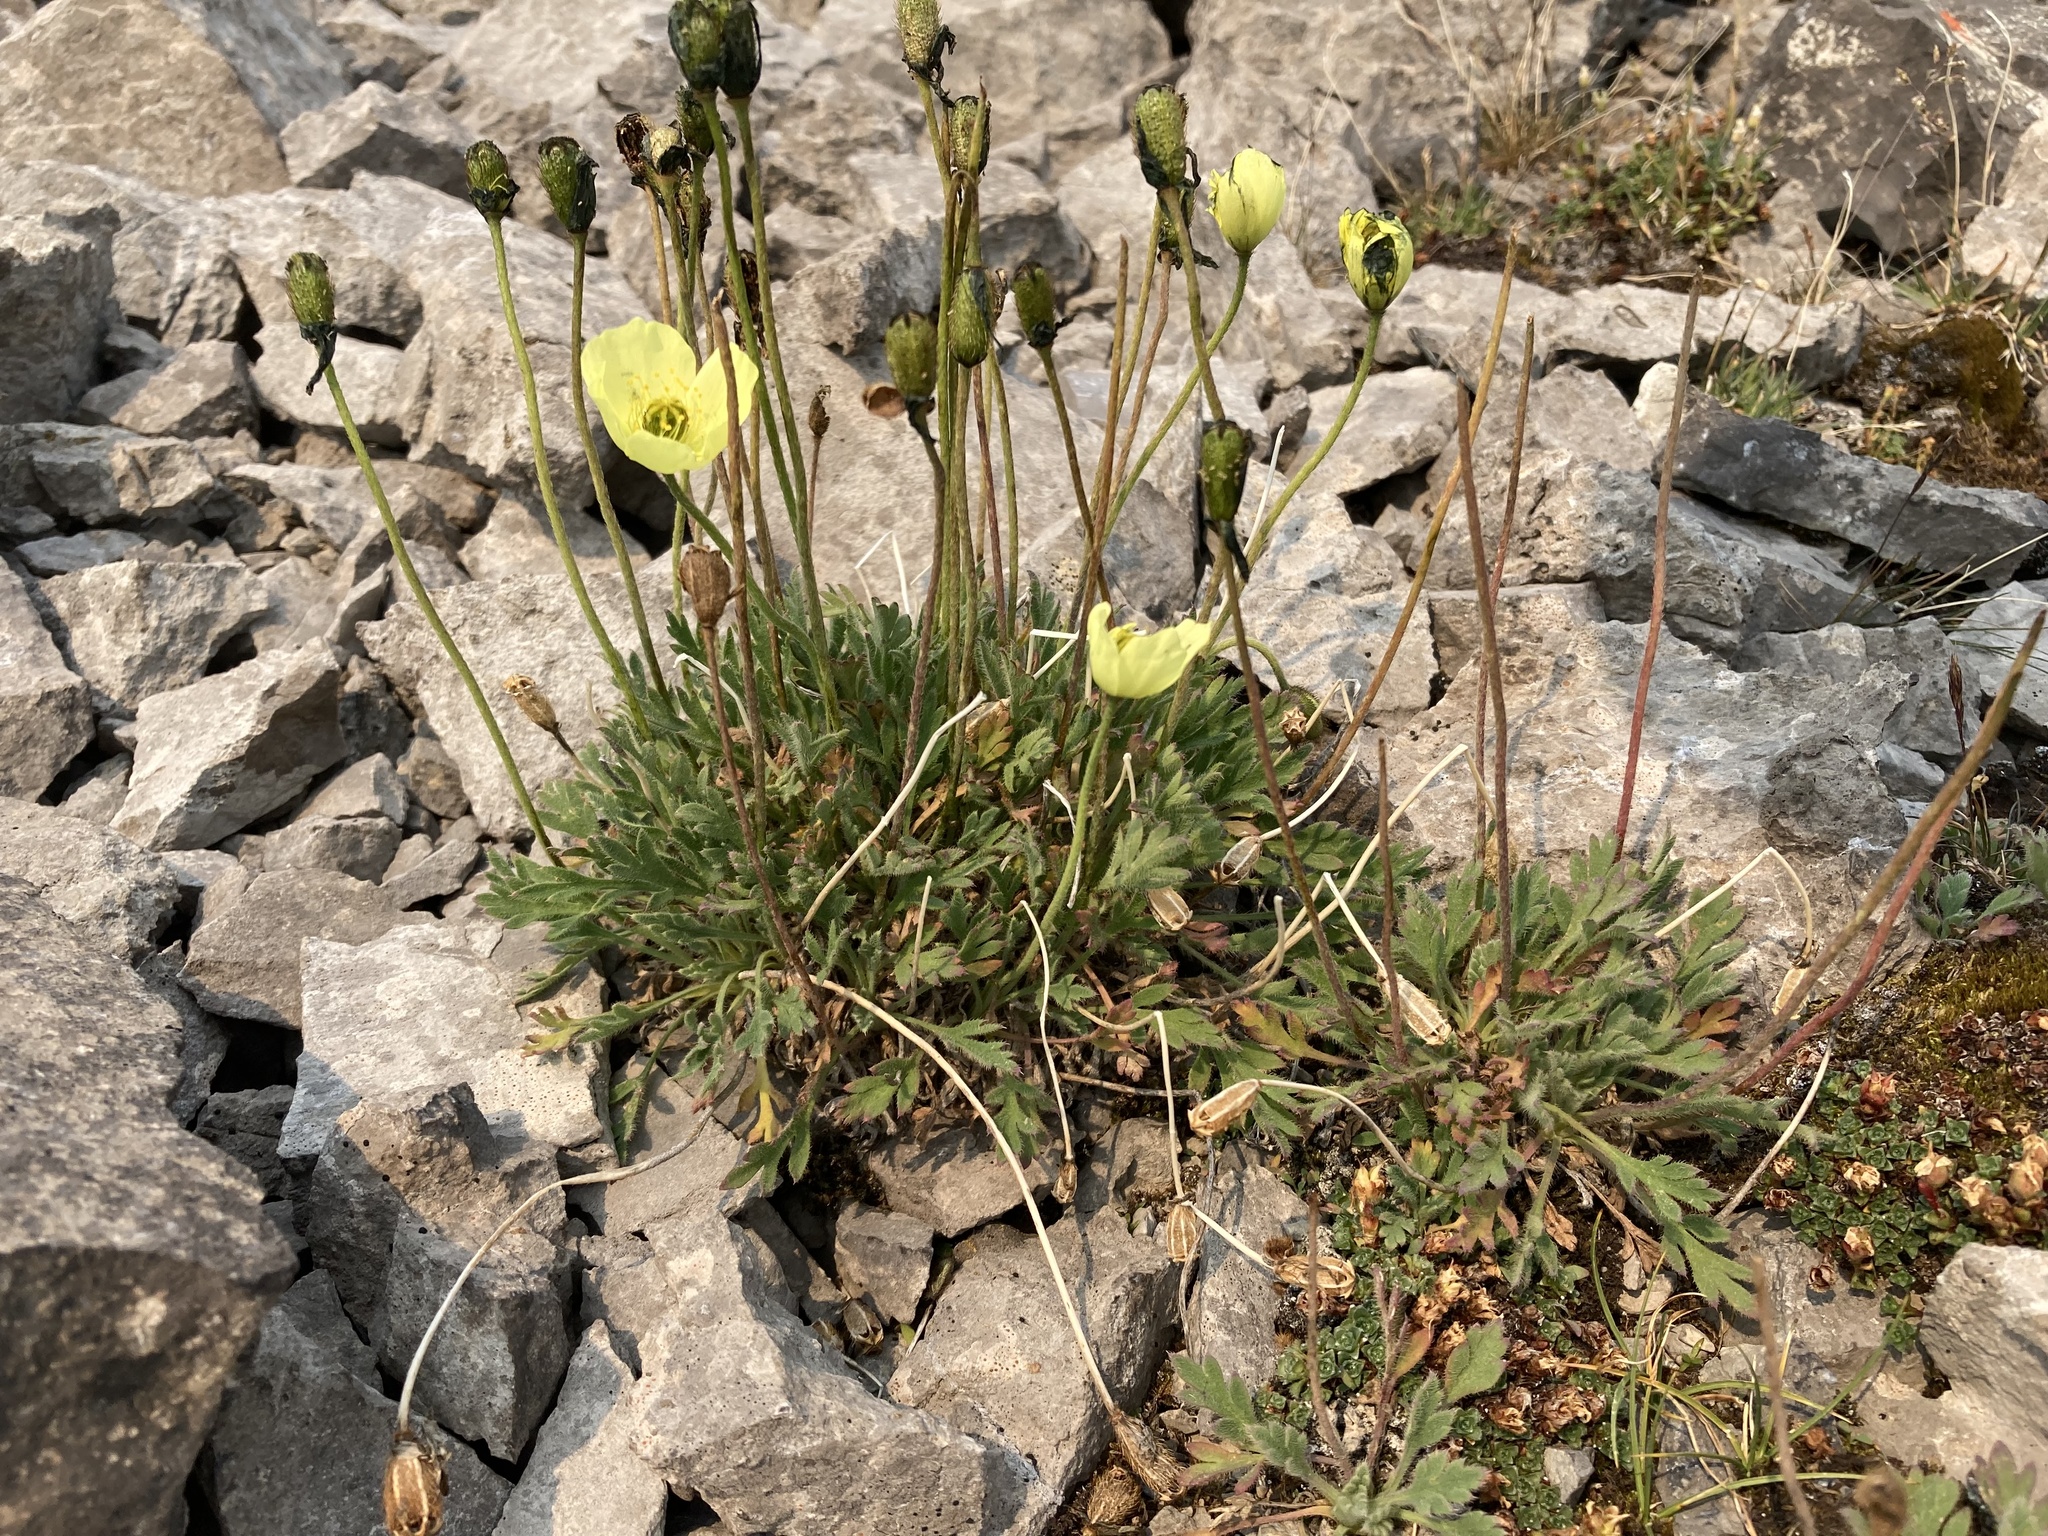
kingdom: Plantae
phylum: Tracheophyta
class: Magnoliopsida
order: Ranunculales
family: Papaveraceae
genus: Papaver
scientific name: Papaver radicatum
